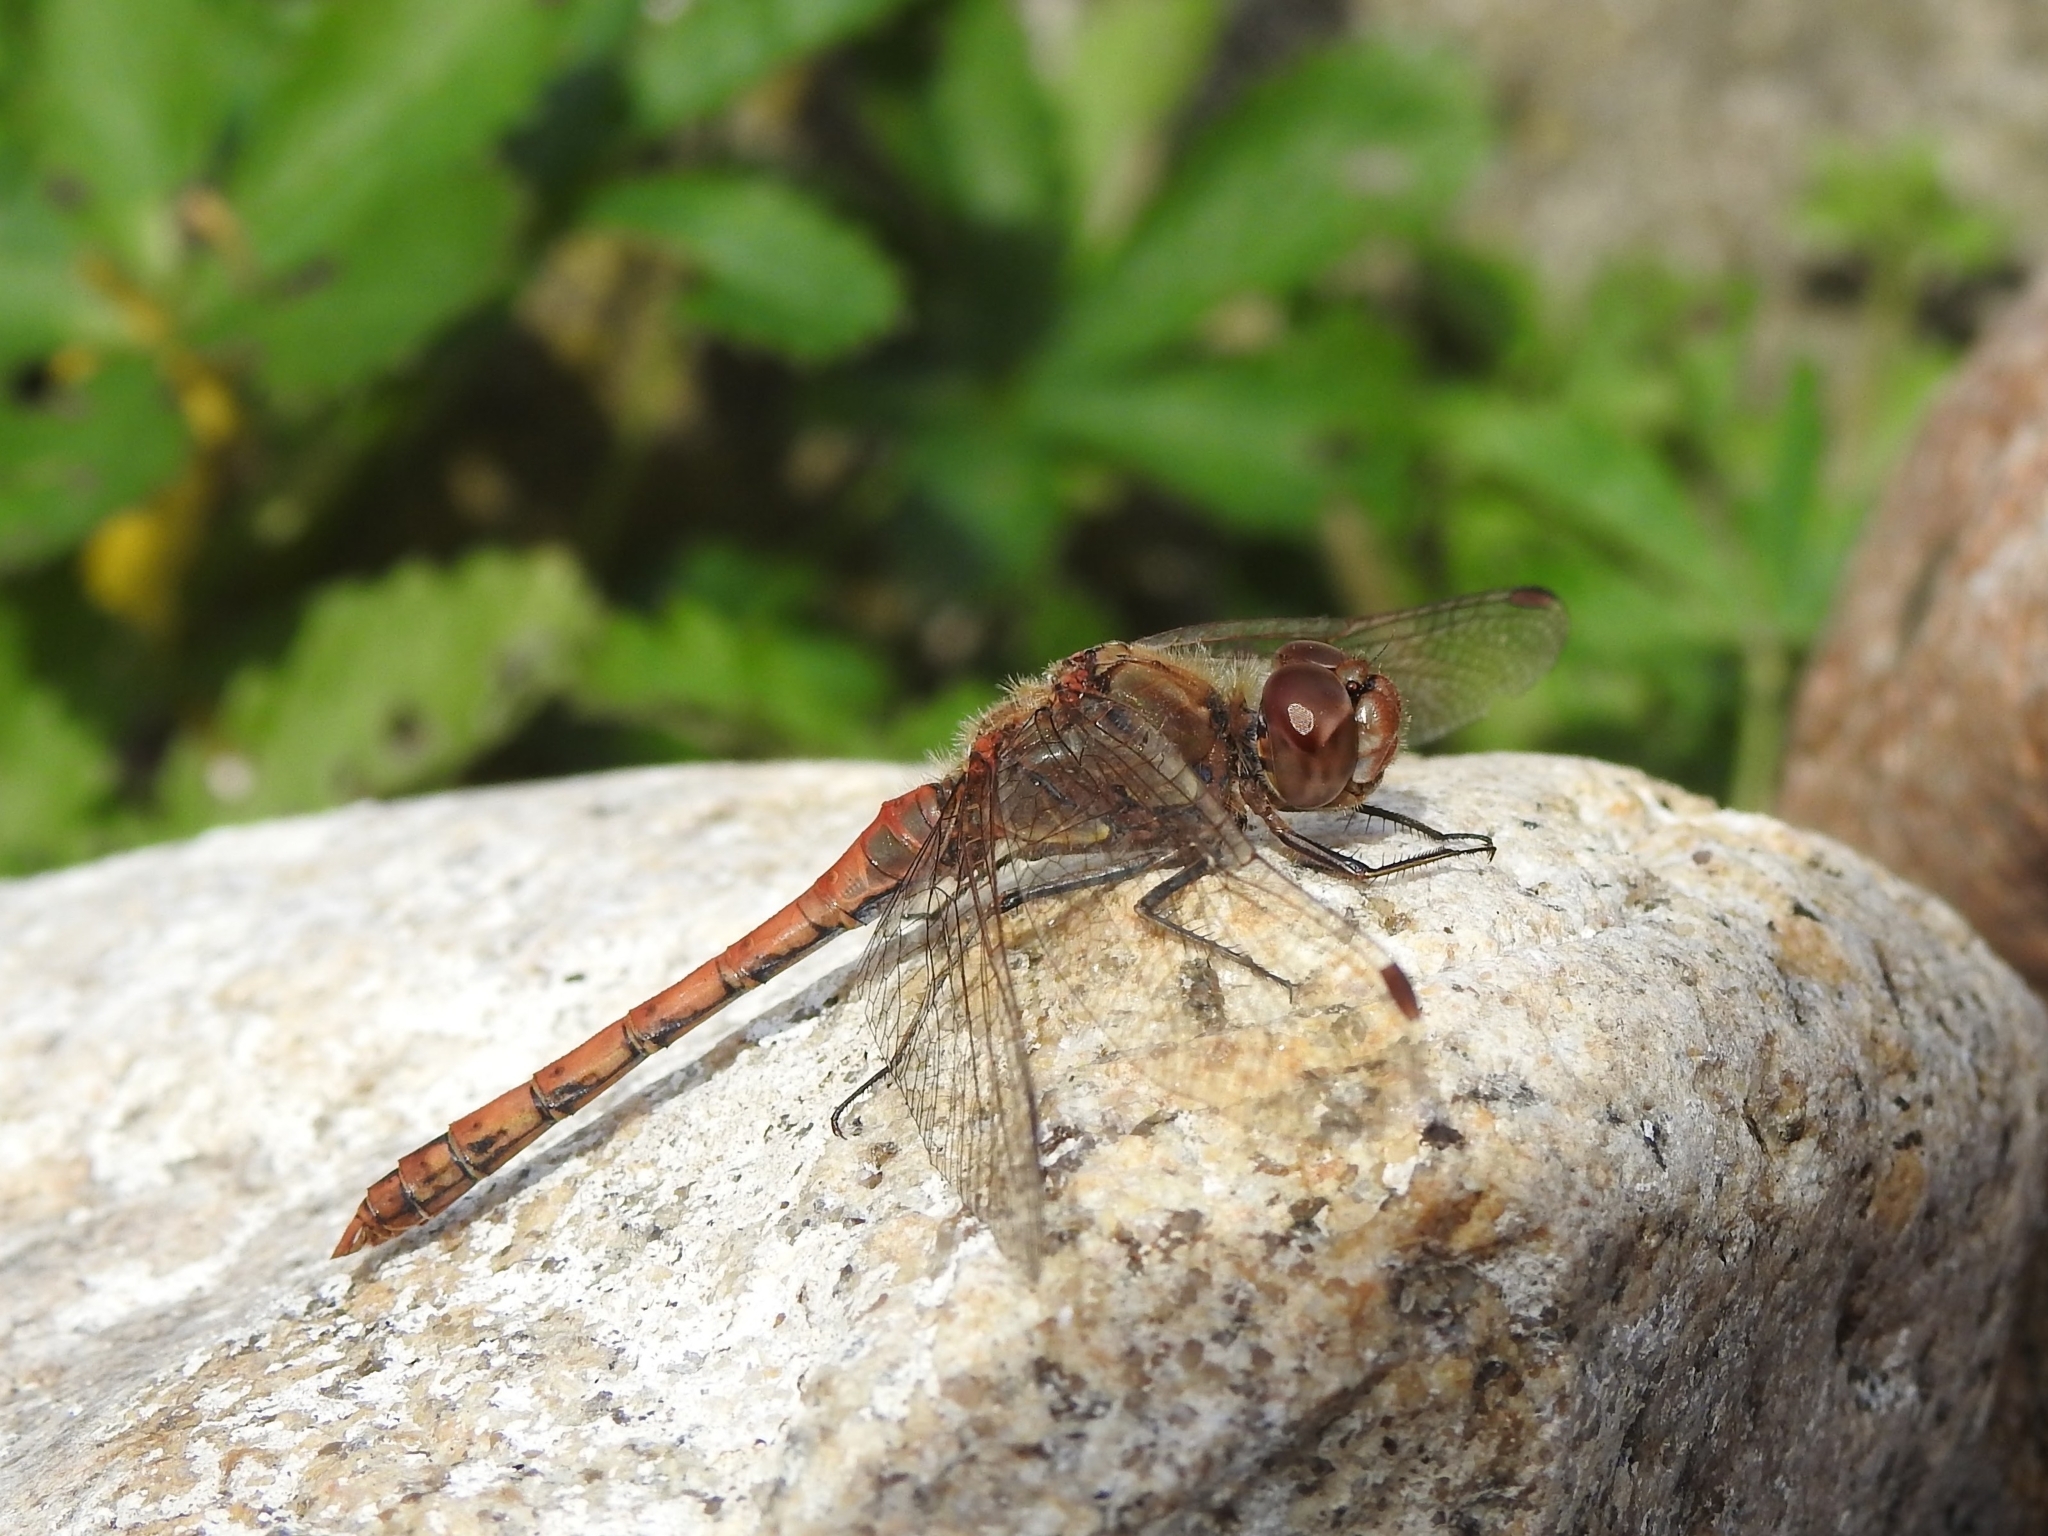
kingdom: Animalia
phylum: Arthropoda
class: Insecta
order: Odonata
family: Libellulidae
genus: Sympetrum
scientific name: Sympetrum striolatum
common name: Common darter
